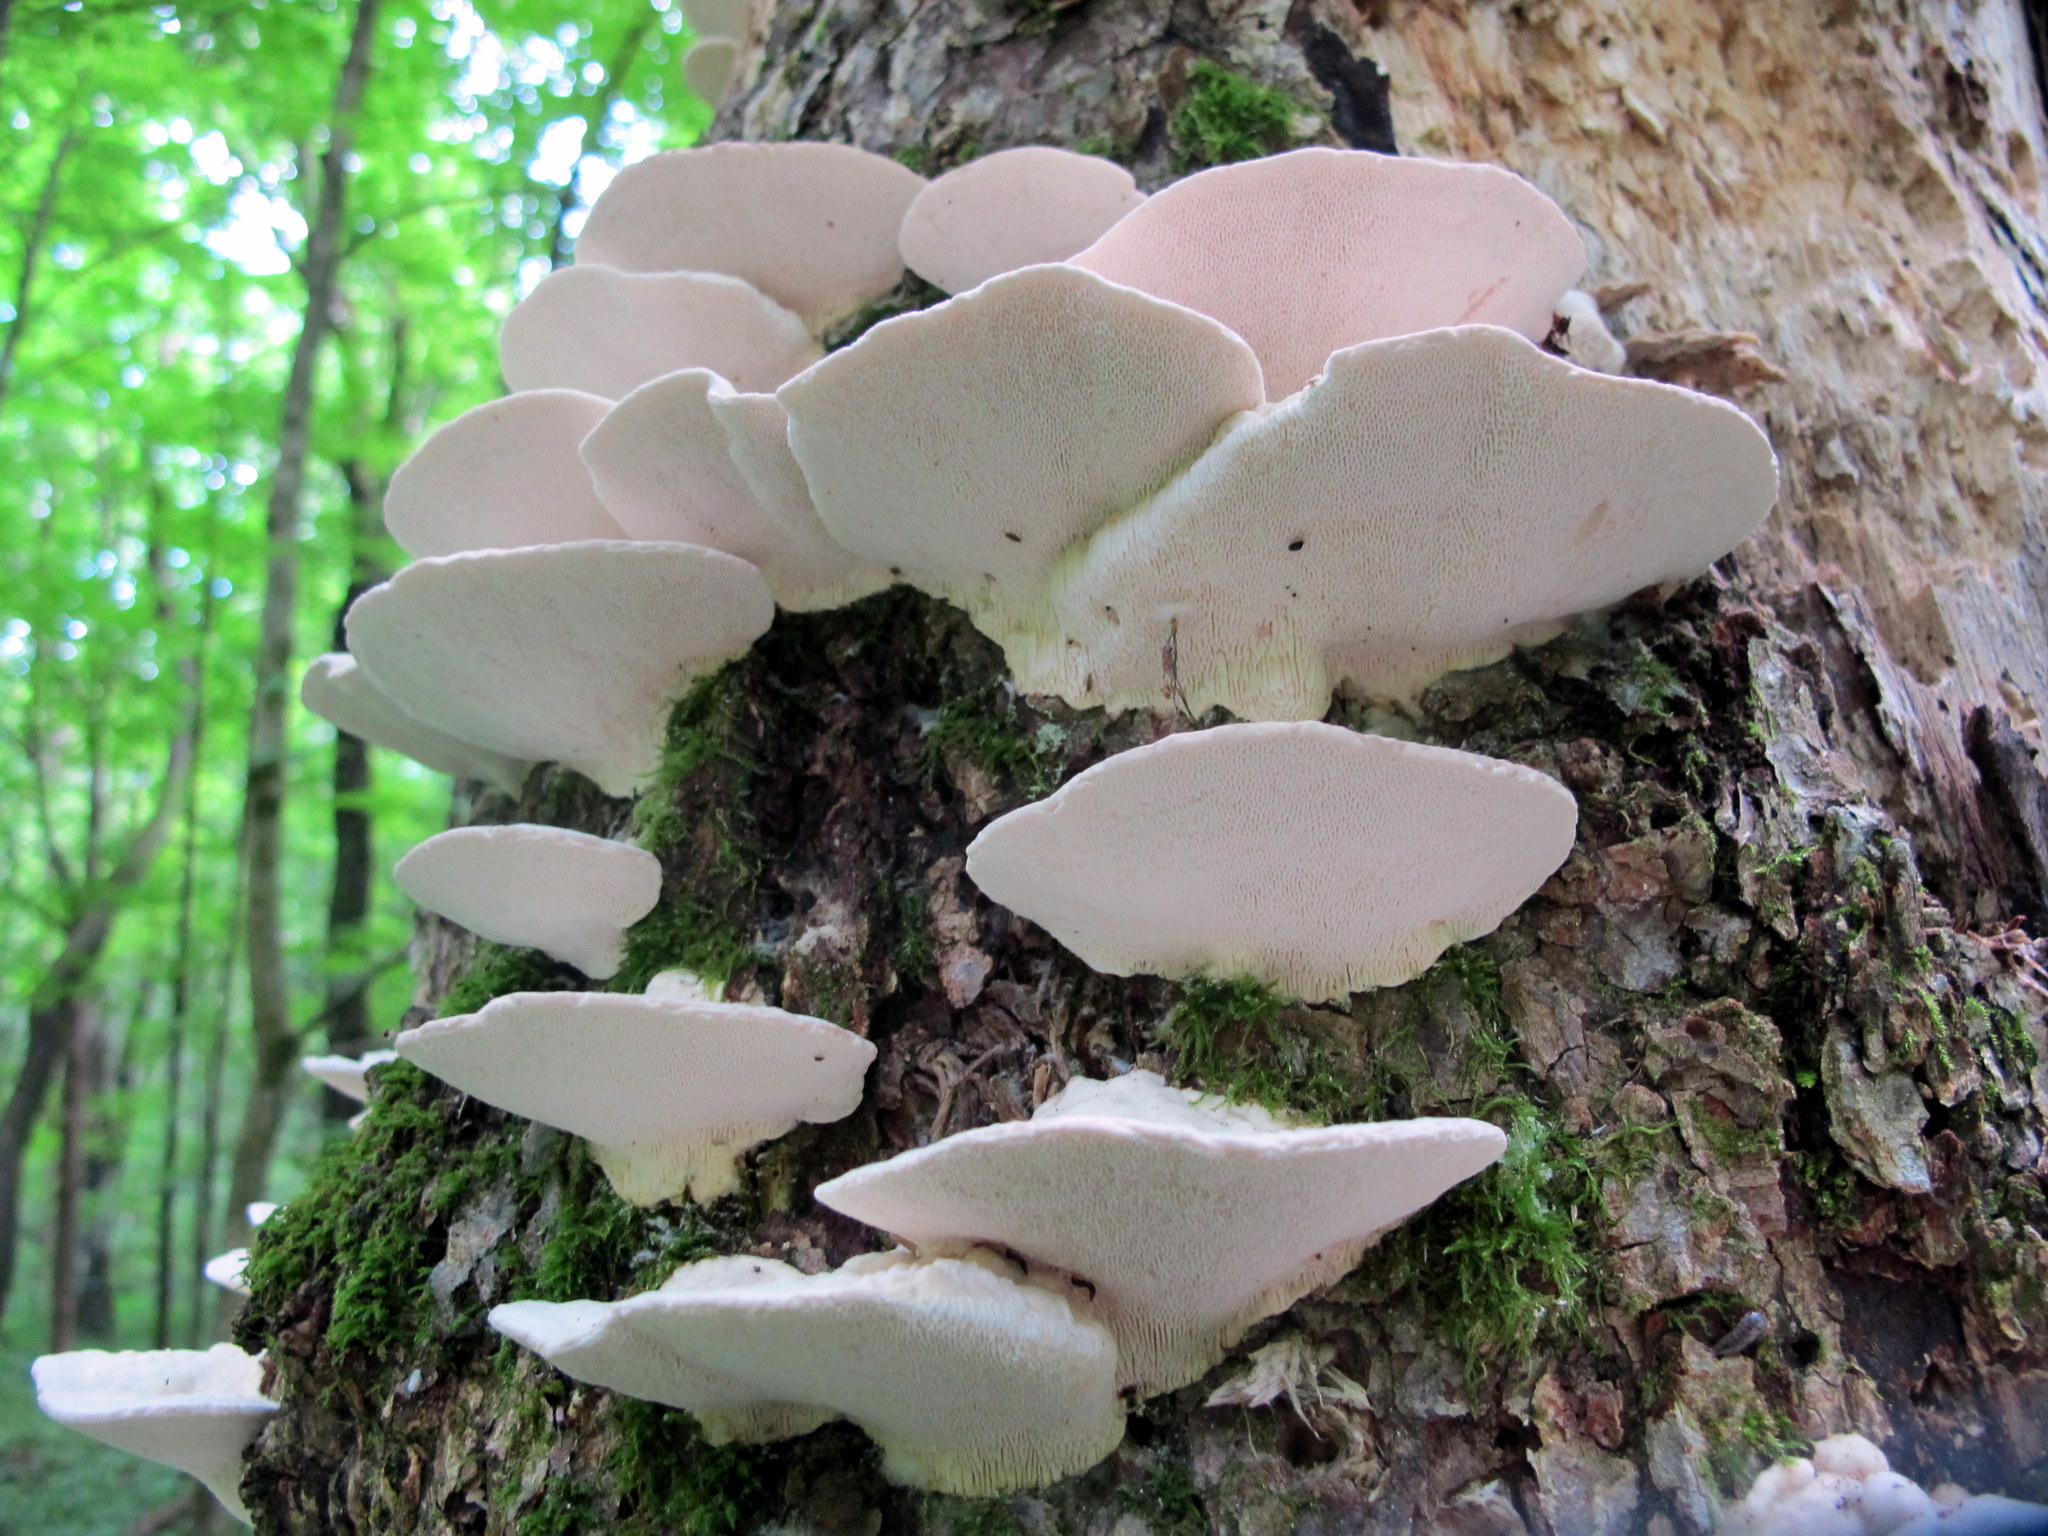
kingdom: Fungi
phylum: Basidiomycota
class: Agaricomycetes
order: Polyporales
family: Polyporaceae
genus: Trametes
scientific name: Trametes gibbosa
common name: Lumpy bracket
